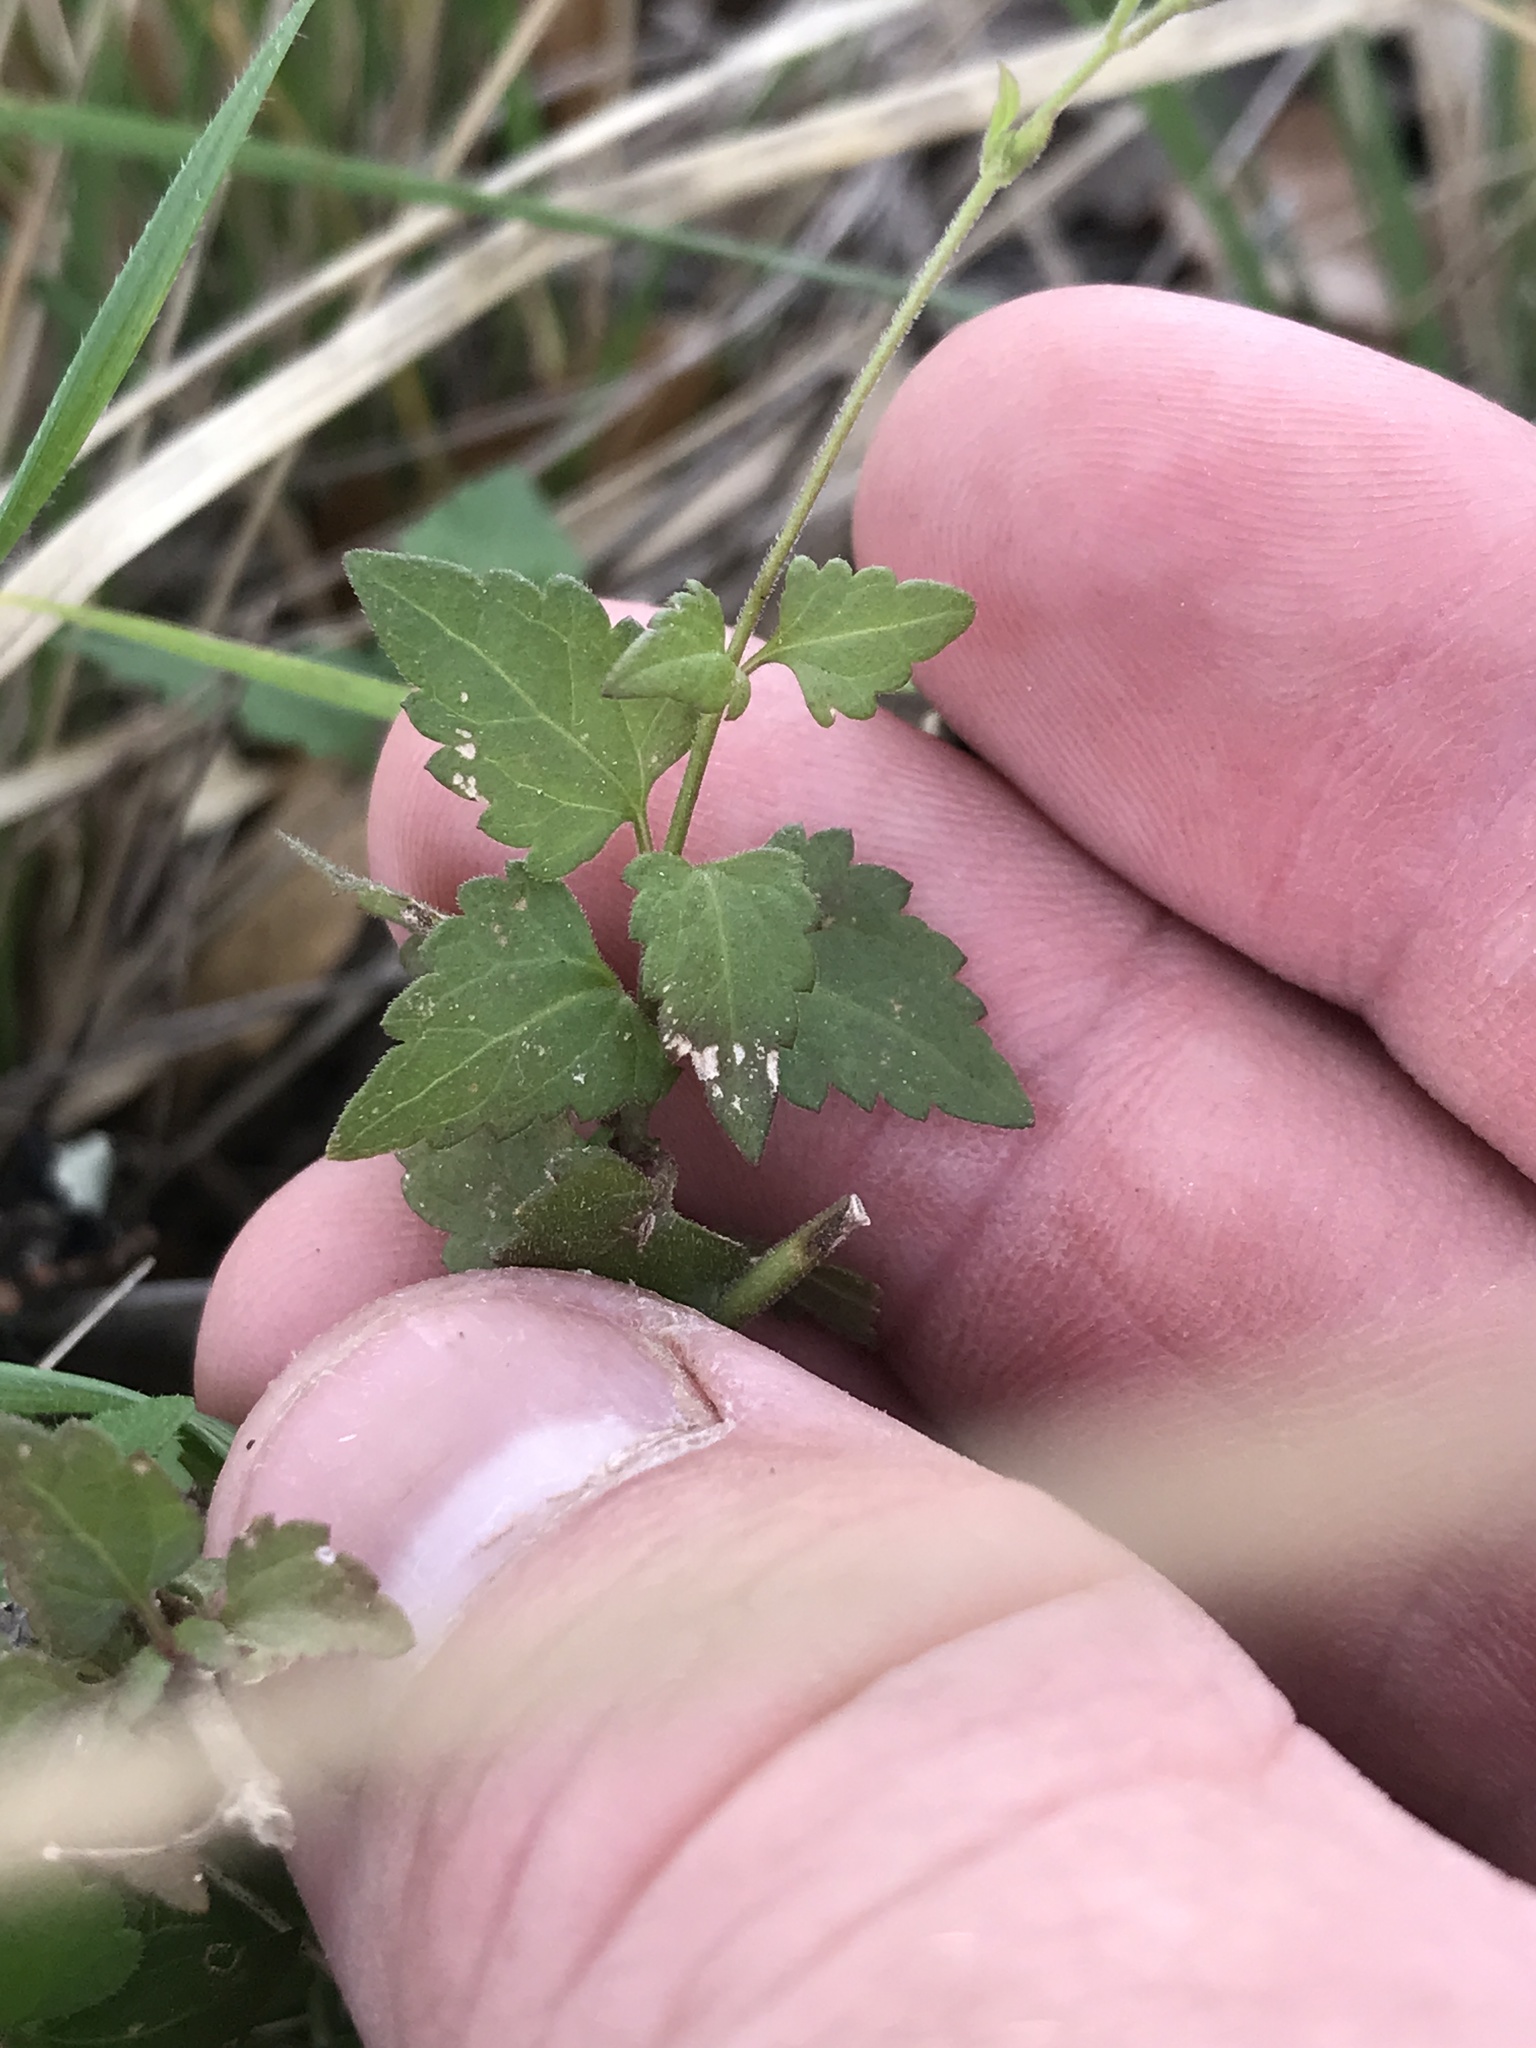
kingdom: Plantae
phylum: Tracheophyta
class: Magnoliopsida
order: Asterales
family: Asteraceae
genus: Fleischmannia
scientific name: Fleischmannia incarnata
